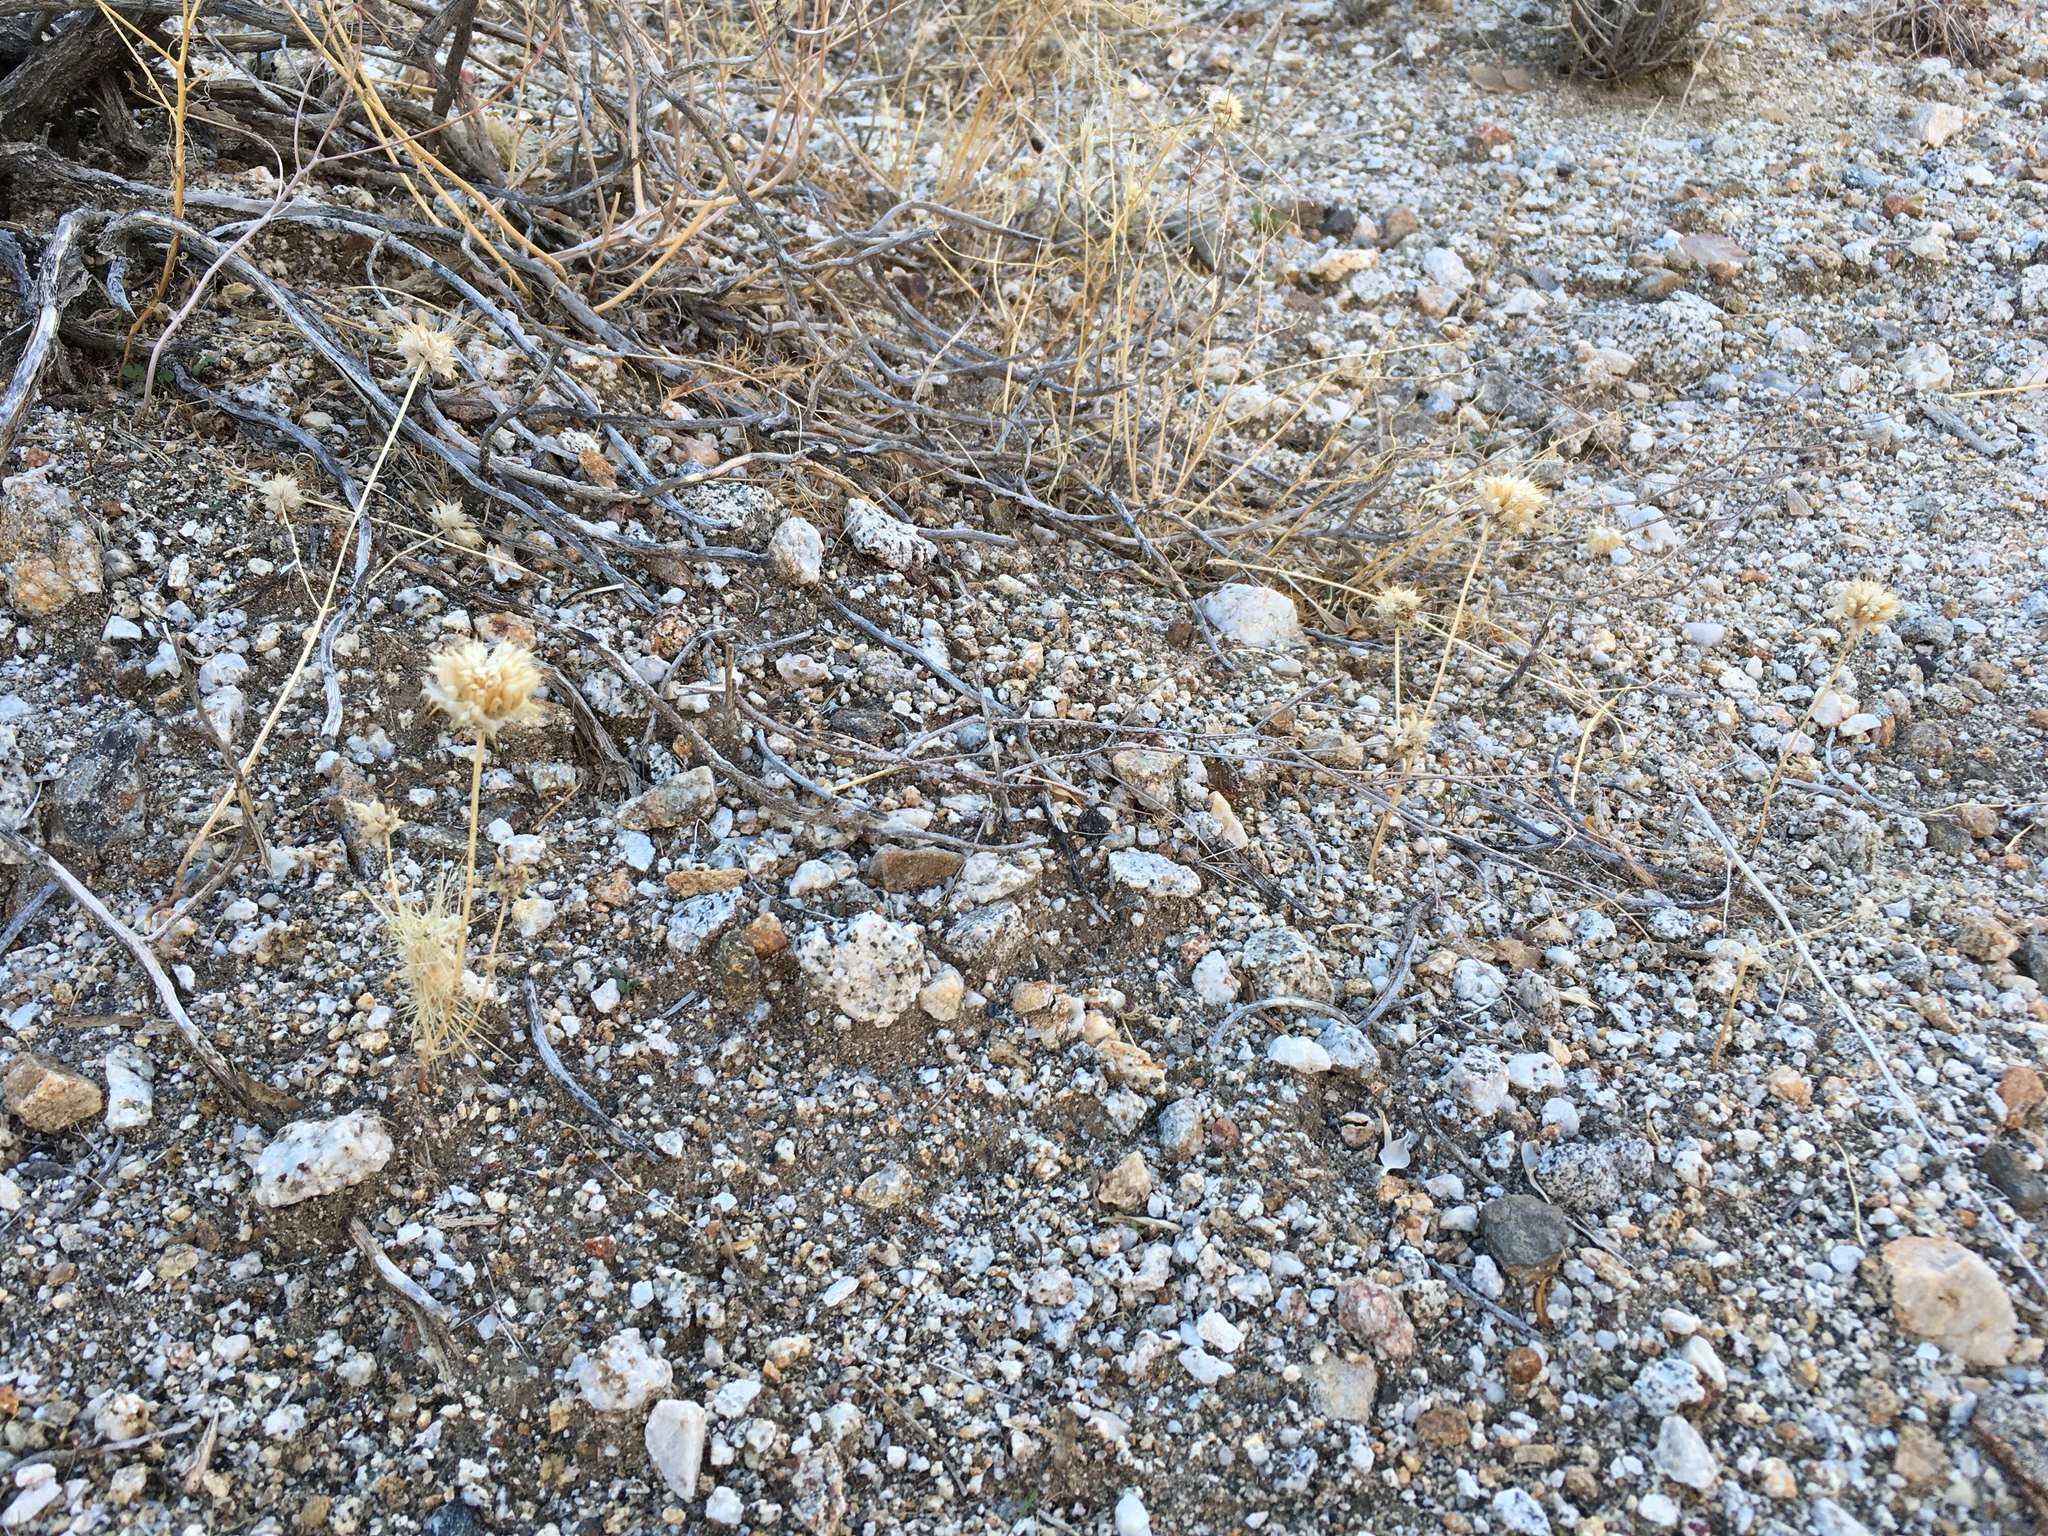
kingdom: Plantae
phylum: Tracheophyta
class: Magnoliopsida
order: Lamiales
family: Lamiaceae
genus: Salvia
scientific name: Salvia columbariae
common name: Chia
